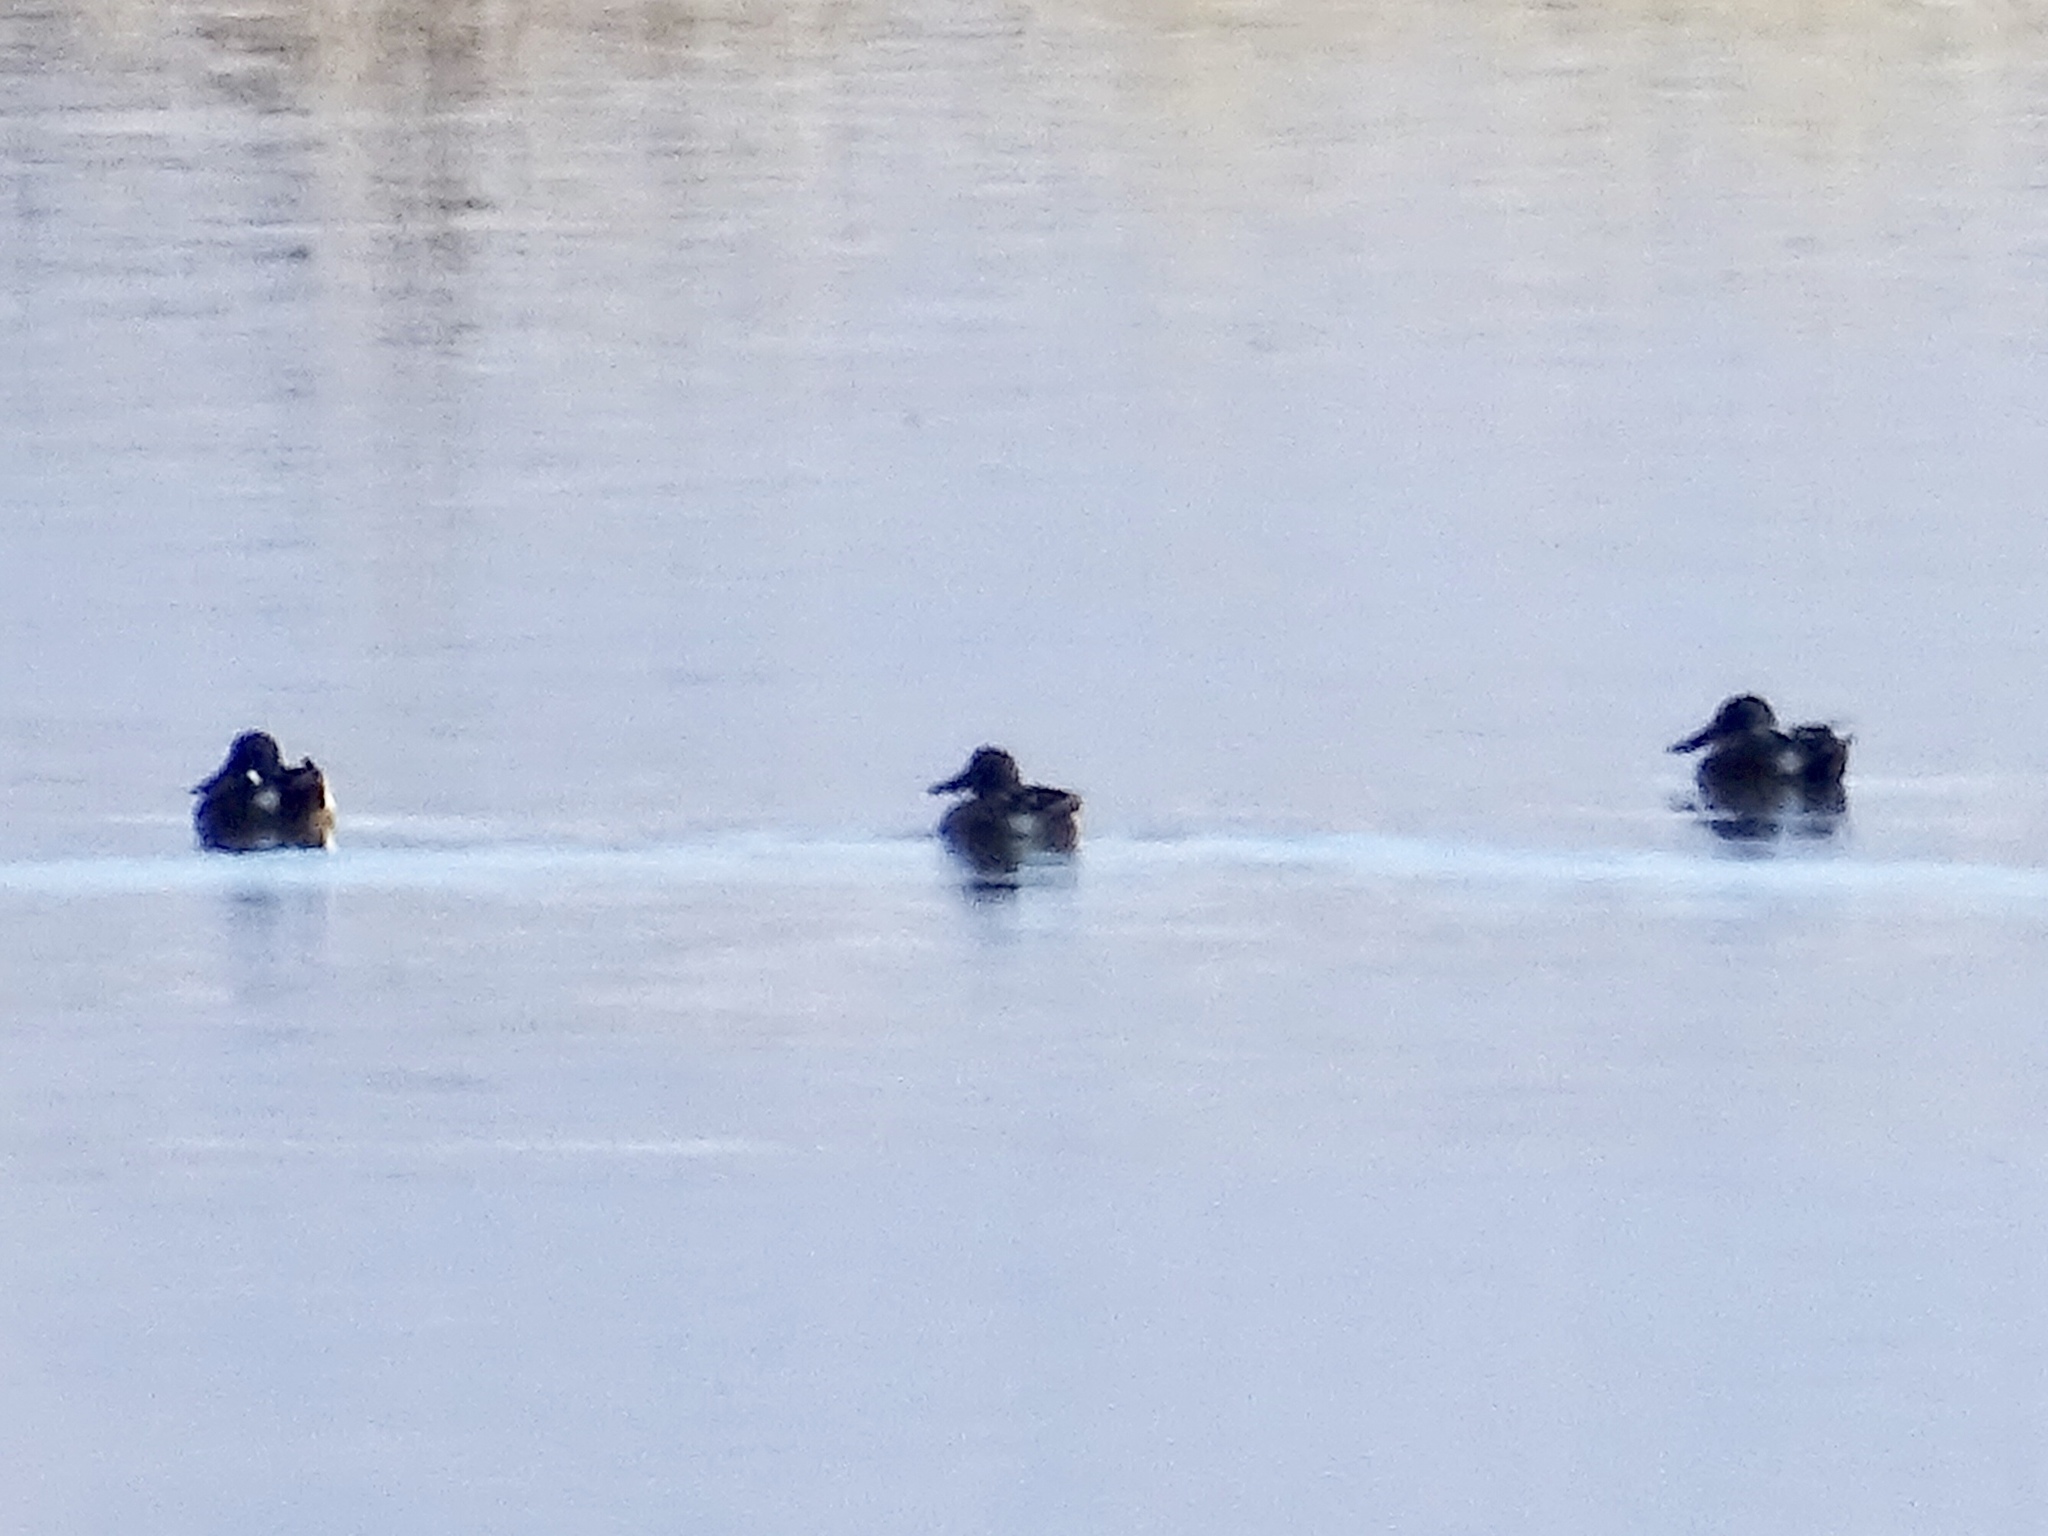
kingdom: Animalia
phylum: Chordata
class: Aves
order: Anseriformes
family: Anatidae
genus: Spatula
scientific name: Spatula clypeata
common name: Northern shoveler
